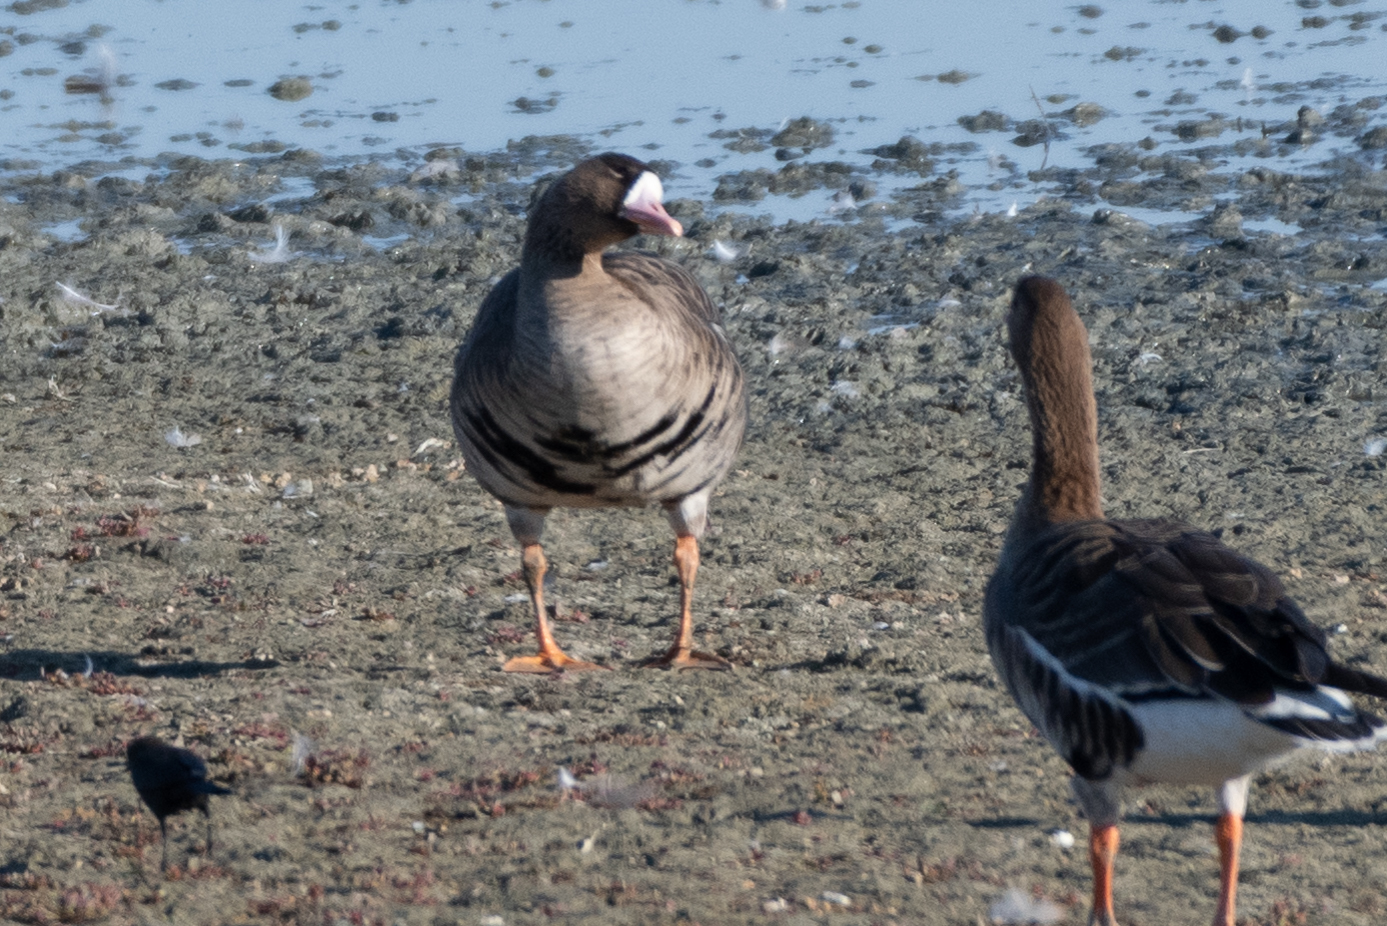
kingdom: Animalia
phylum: Chordata
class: Aves
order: Anseriformes
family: Anatidae
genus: Anser
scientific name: Anser albifrons
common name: Greater white-fronted goose
